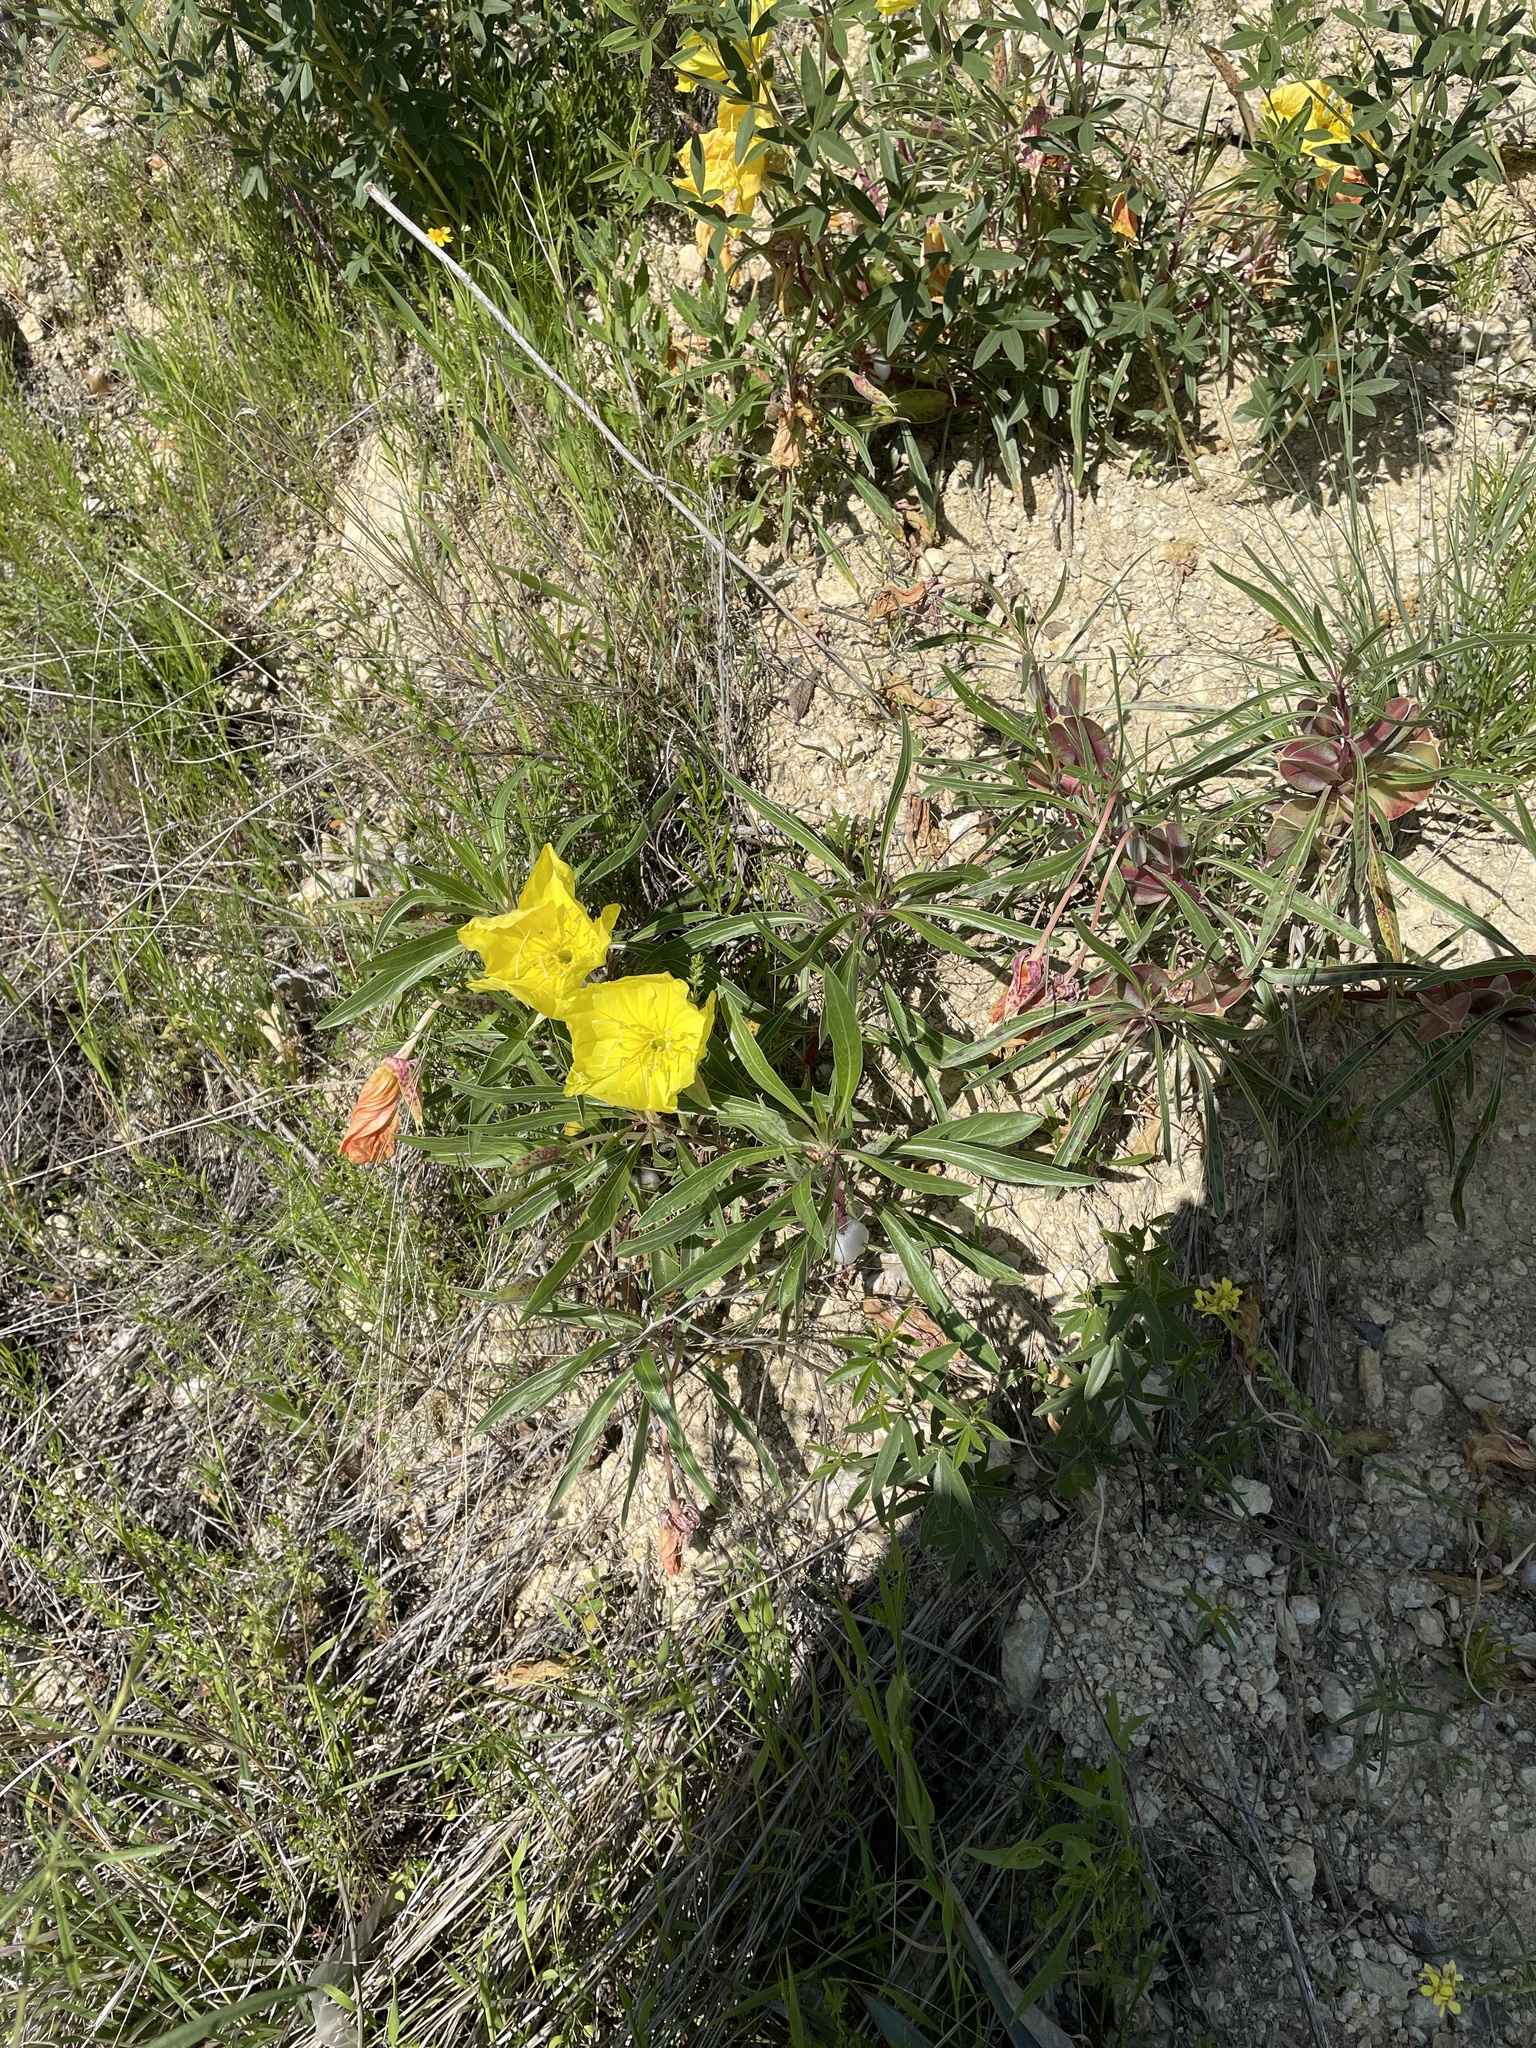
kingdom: Plantae
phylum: Tracheophyta
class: Magnoliopsida
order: Myrtales
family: Onagraceae
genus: Oenothera
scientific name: Oenothera macrocarpa
